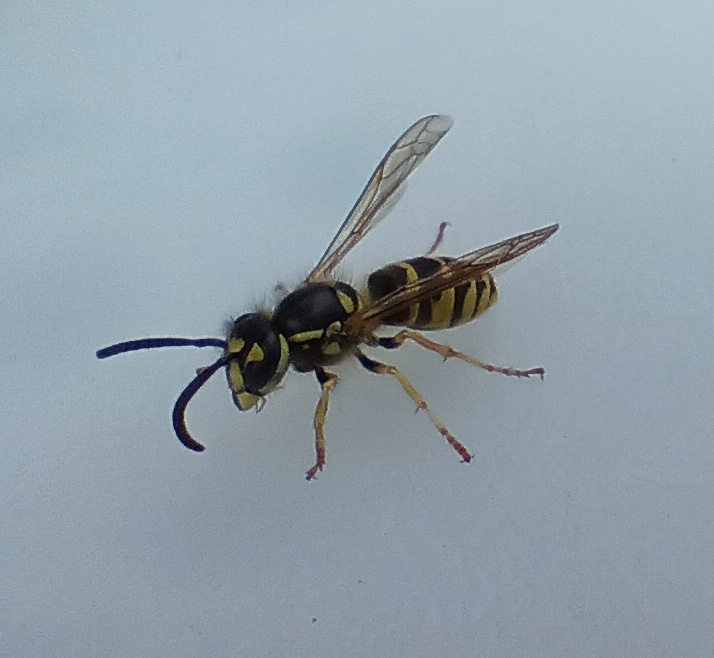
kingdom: Animalia
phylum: Arthropoda
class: Insecta
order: Hymenoptera
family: Vespidae
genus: Vespula
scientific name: Vespula vulgaris
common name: Common wasp
